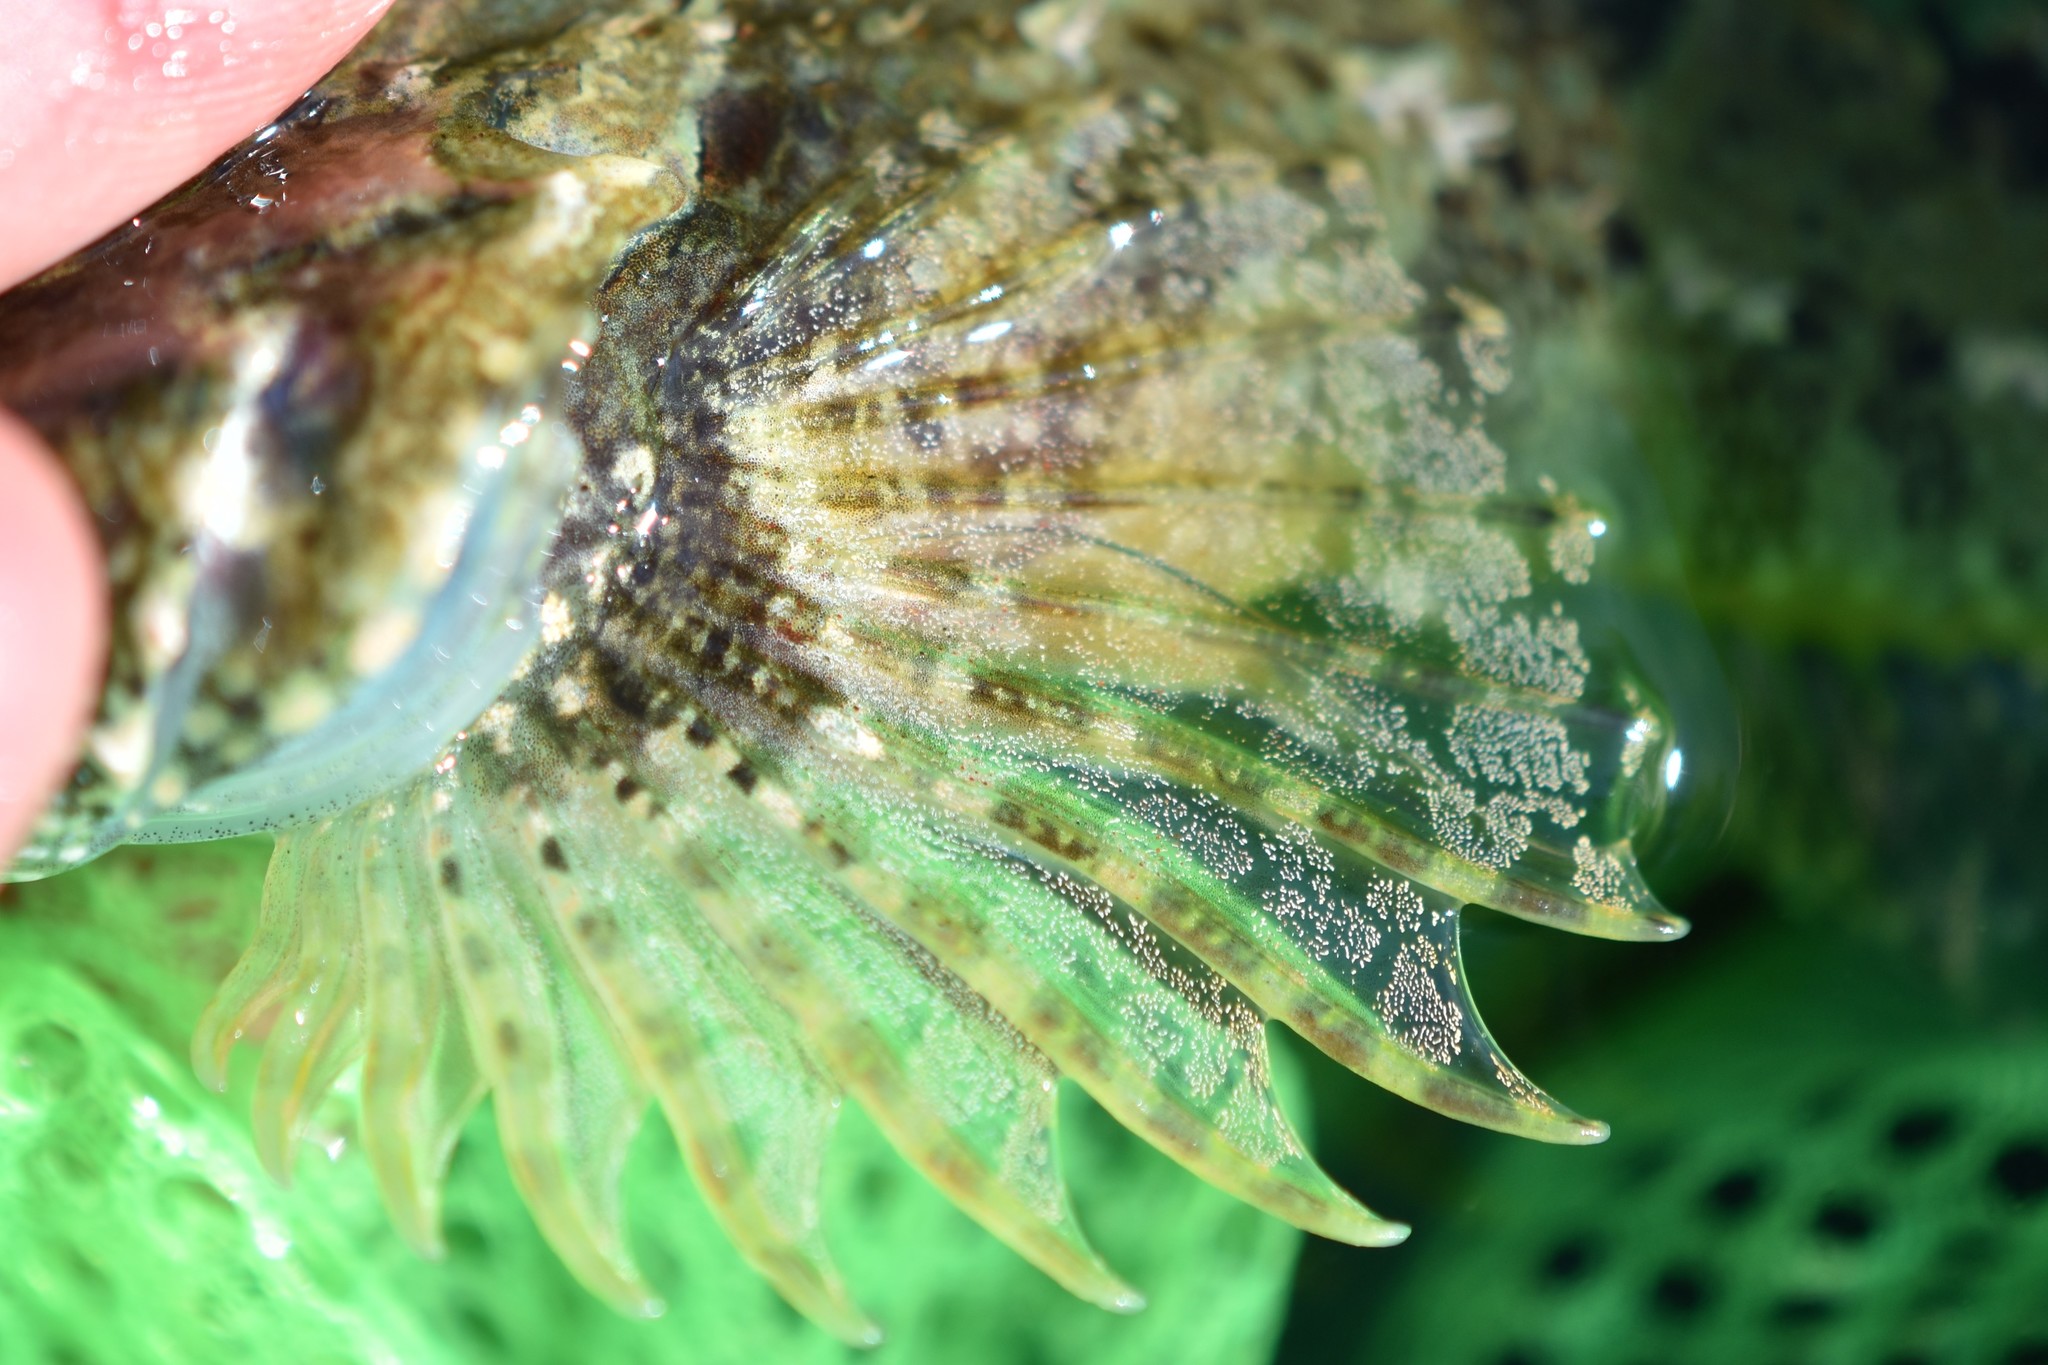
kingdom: Animalia
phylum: Chordata
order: Scorpaeniformes
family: Cottidae
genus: Artedius
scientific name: Artedius fenestralis
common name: Padded sculpin
